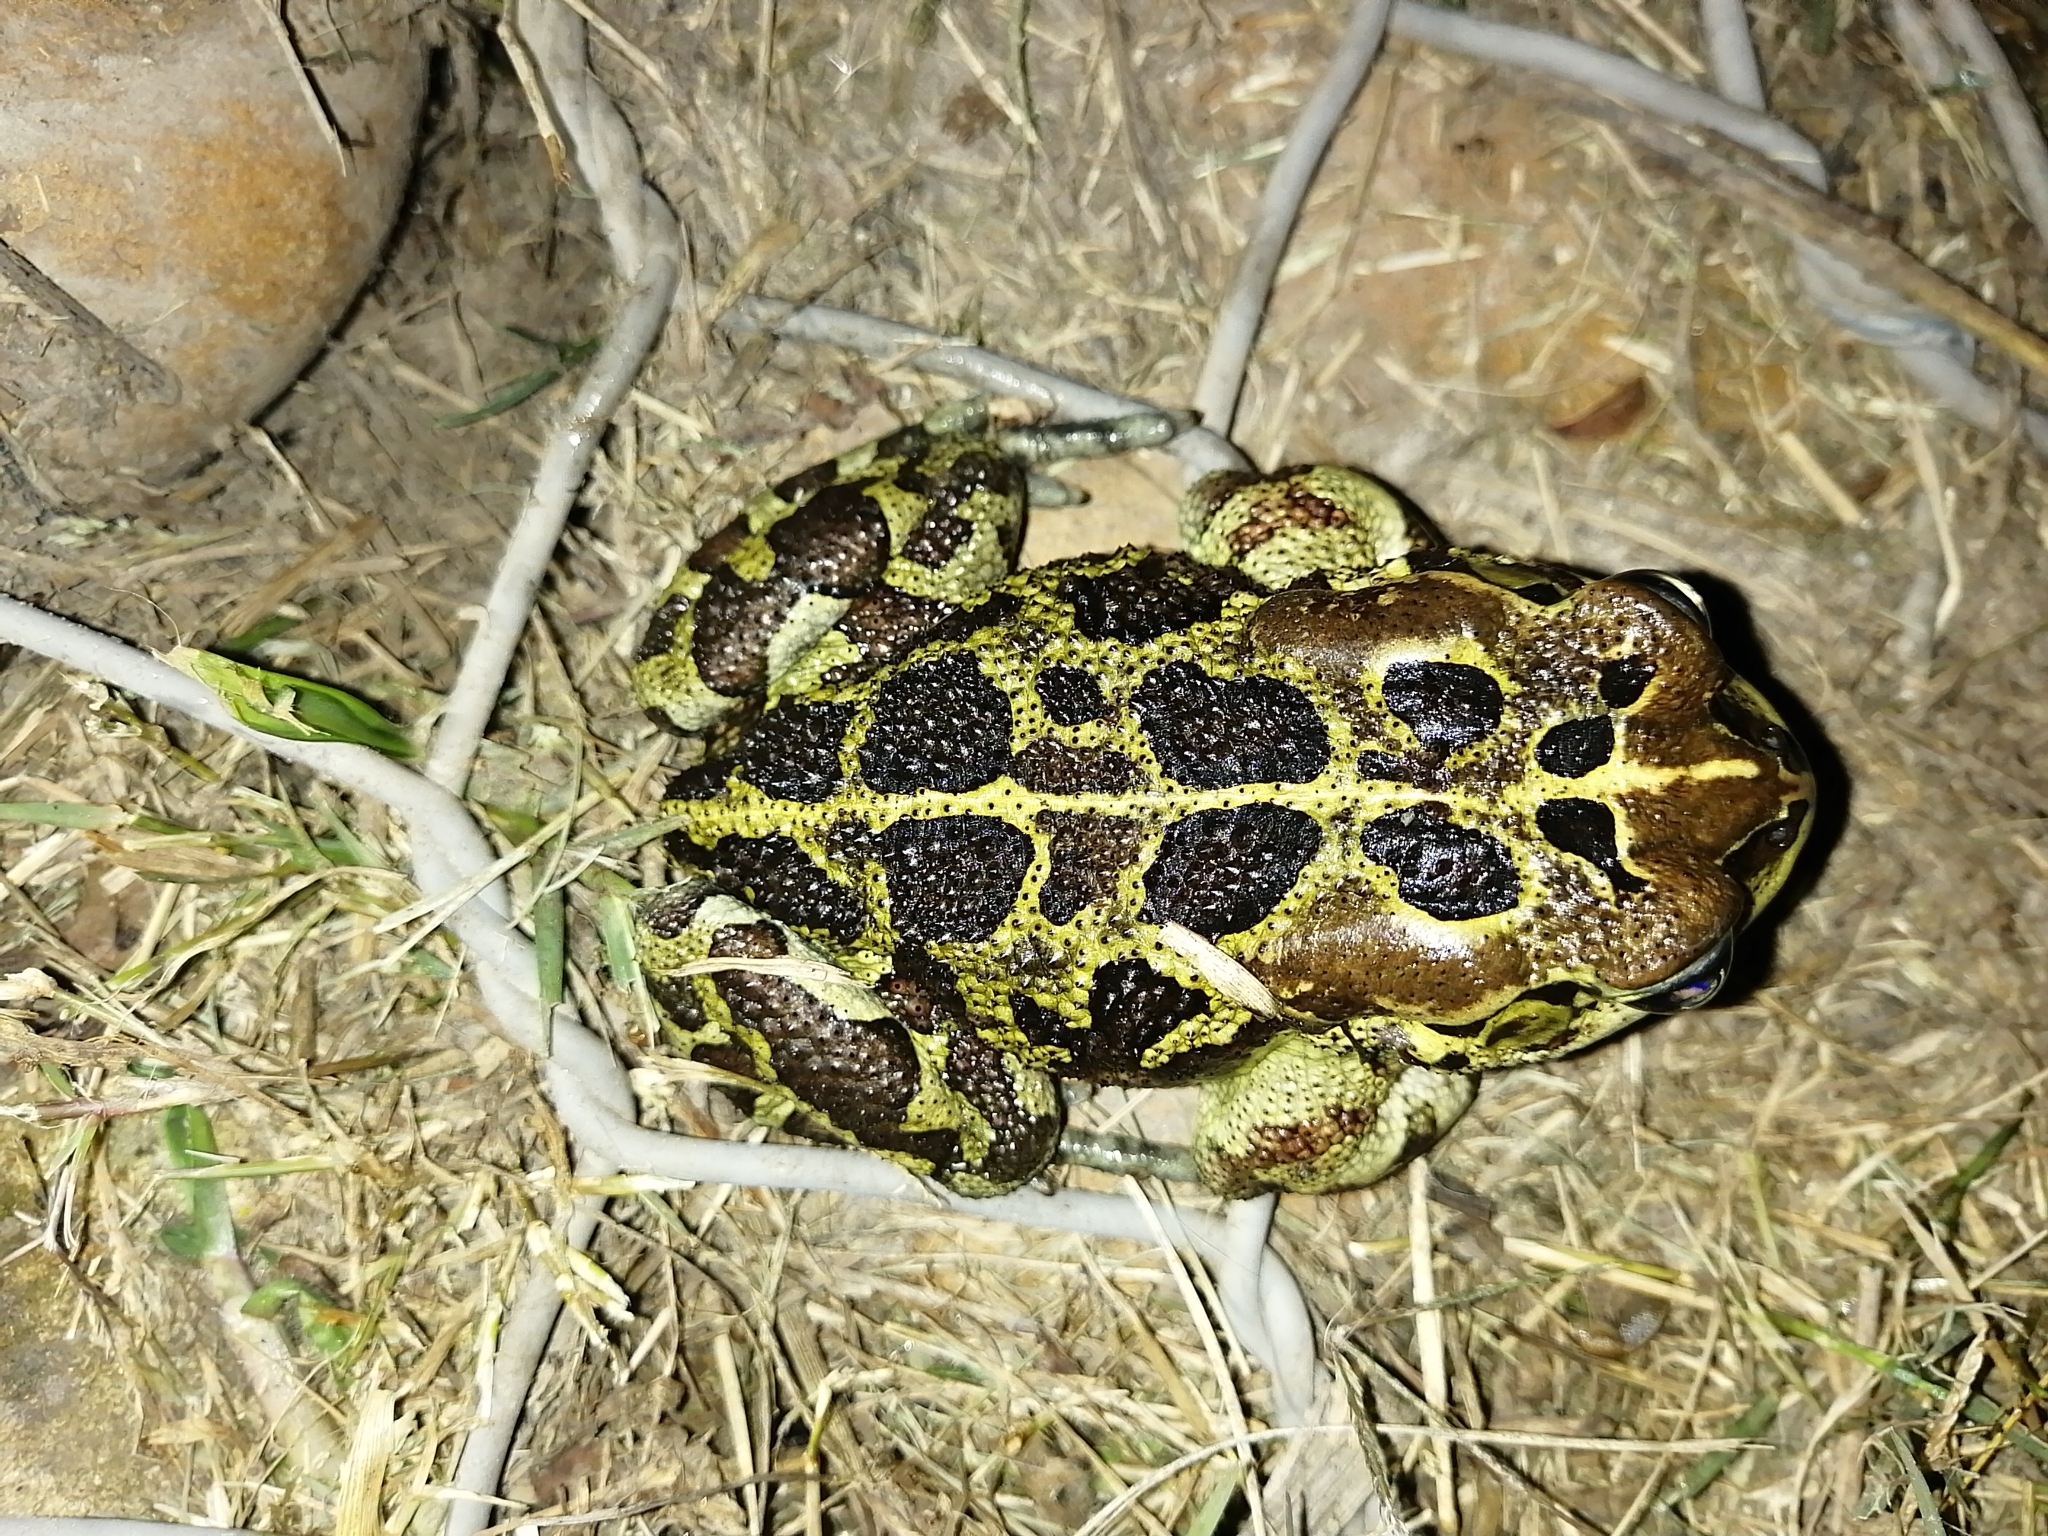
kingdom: Animalia
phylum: Chordata
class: Amphibia
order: Anura
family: Bufonidae
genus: Sclerophrys
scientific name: Sclerophrys pantherina
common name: Panther toad
